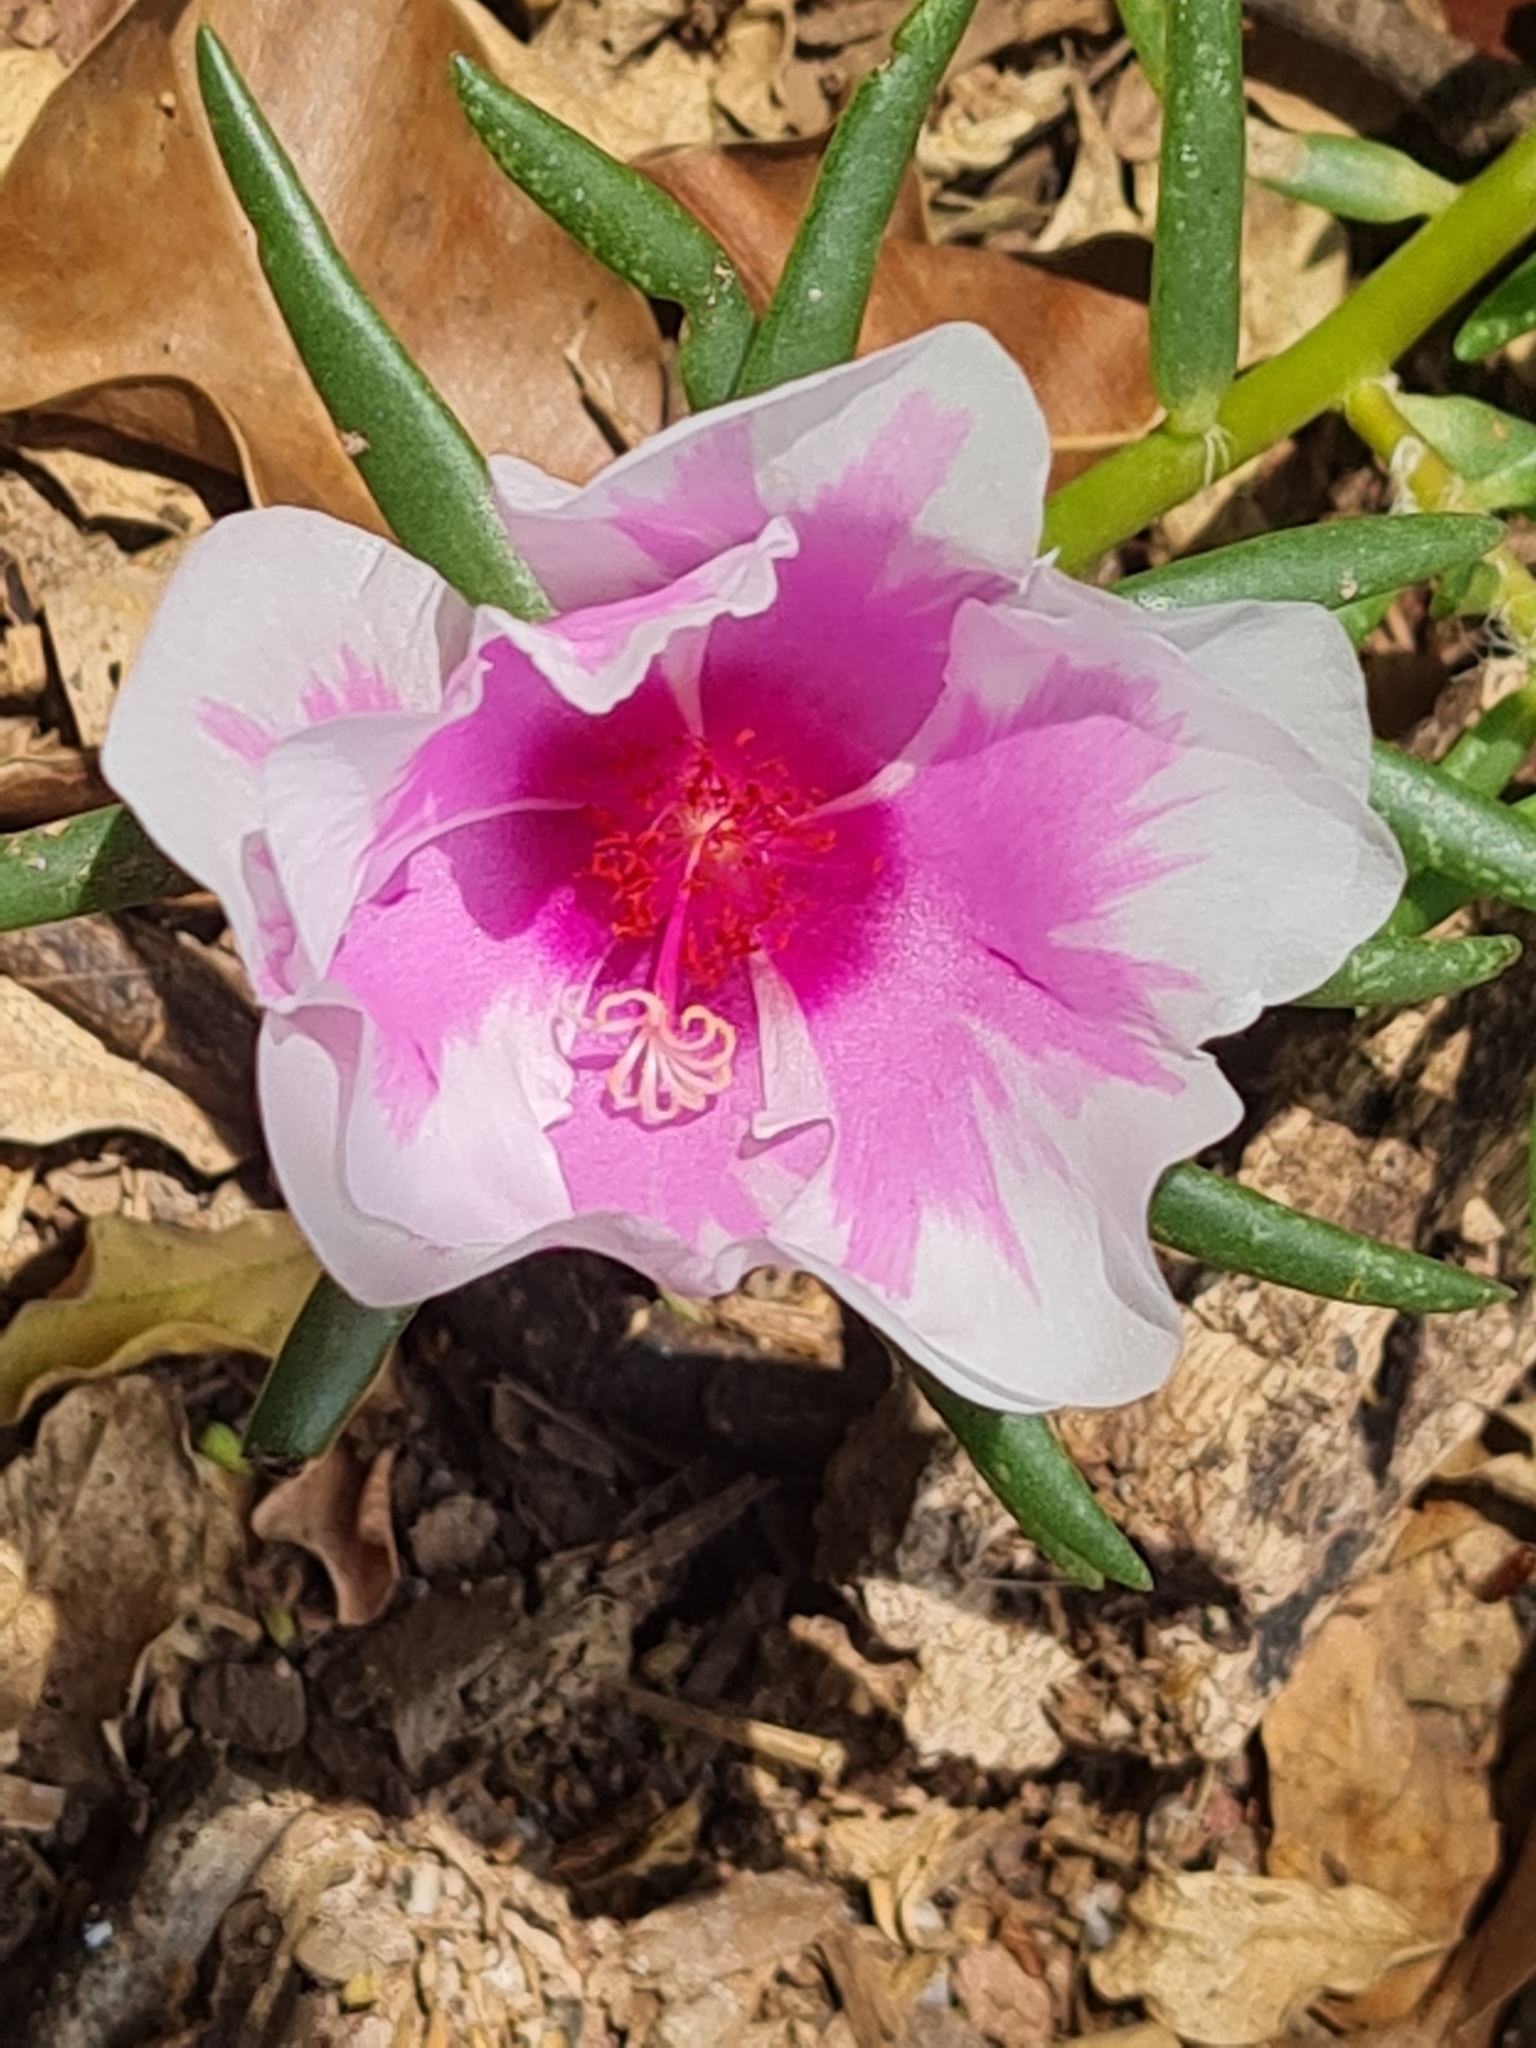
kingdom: Plantae
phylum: Tracheophyta
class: Magnoliopsida
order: Caryophyllales
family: Portulacaceae
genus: Portulaca
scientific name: Portulaca grandiflora
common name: Moss-rose
